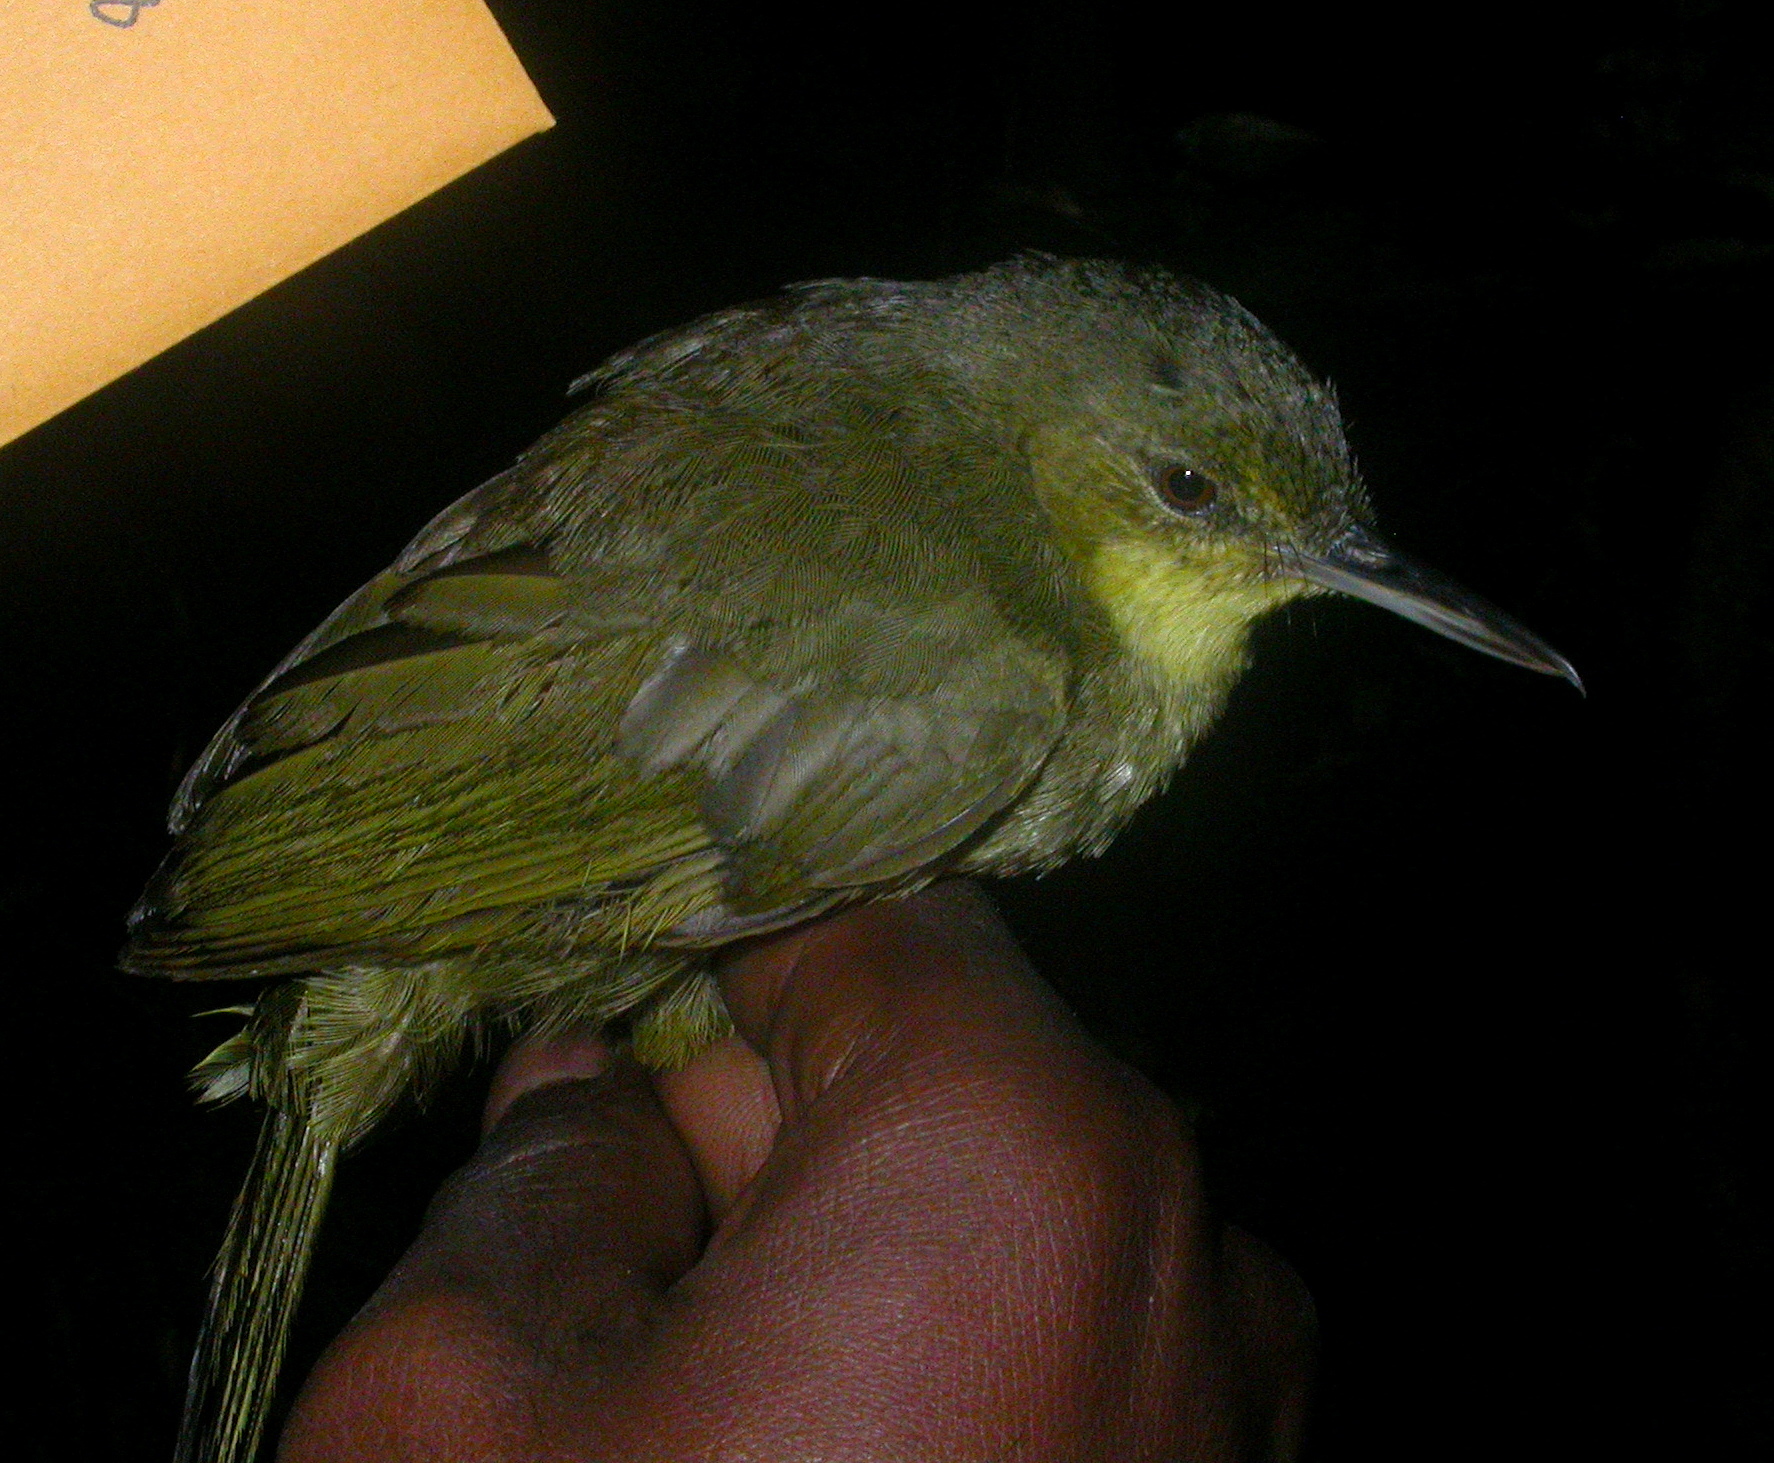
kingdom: Animalia
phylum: Chordata
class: Aves
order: Passeriformes
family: Bernieridae
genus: Bernieria
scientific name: Bernieria madagascariensis
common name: Long-billed bernieria
